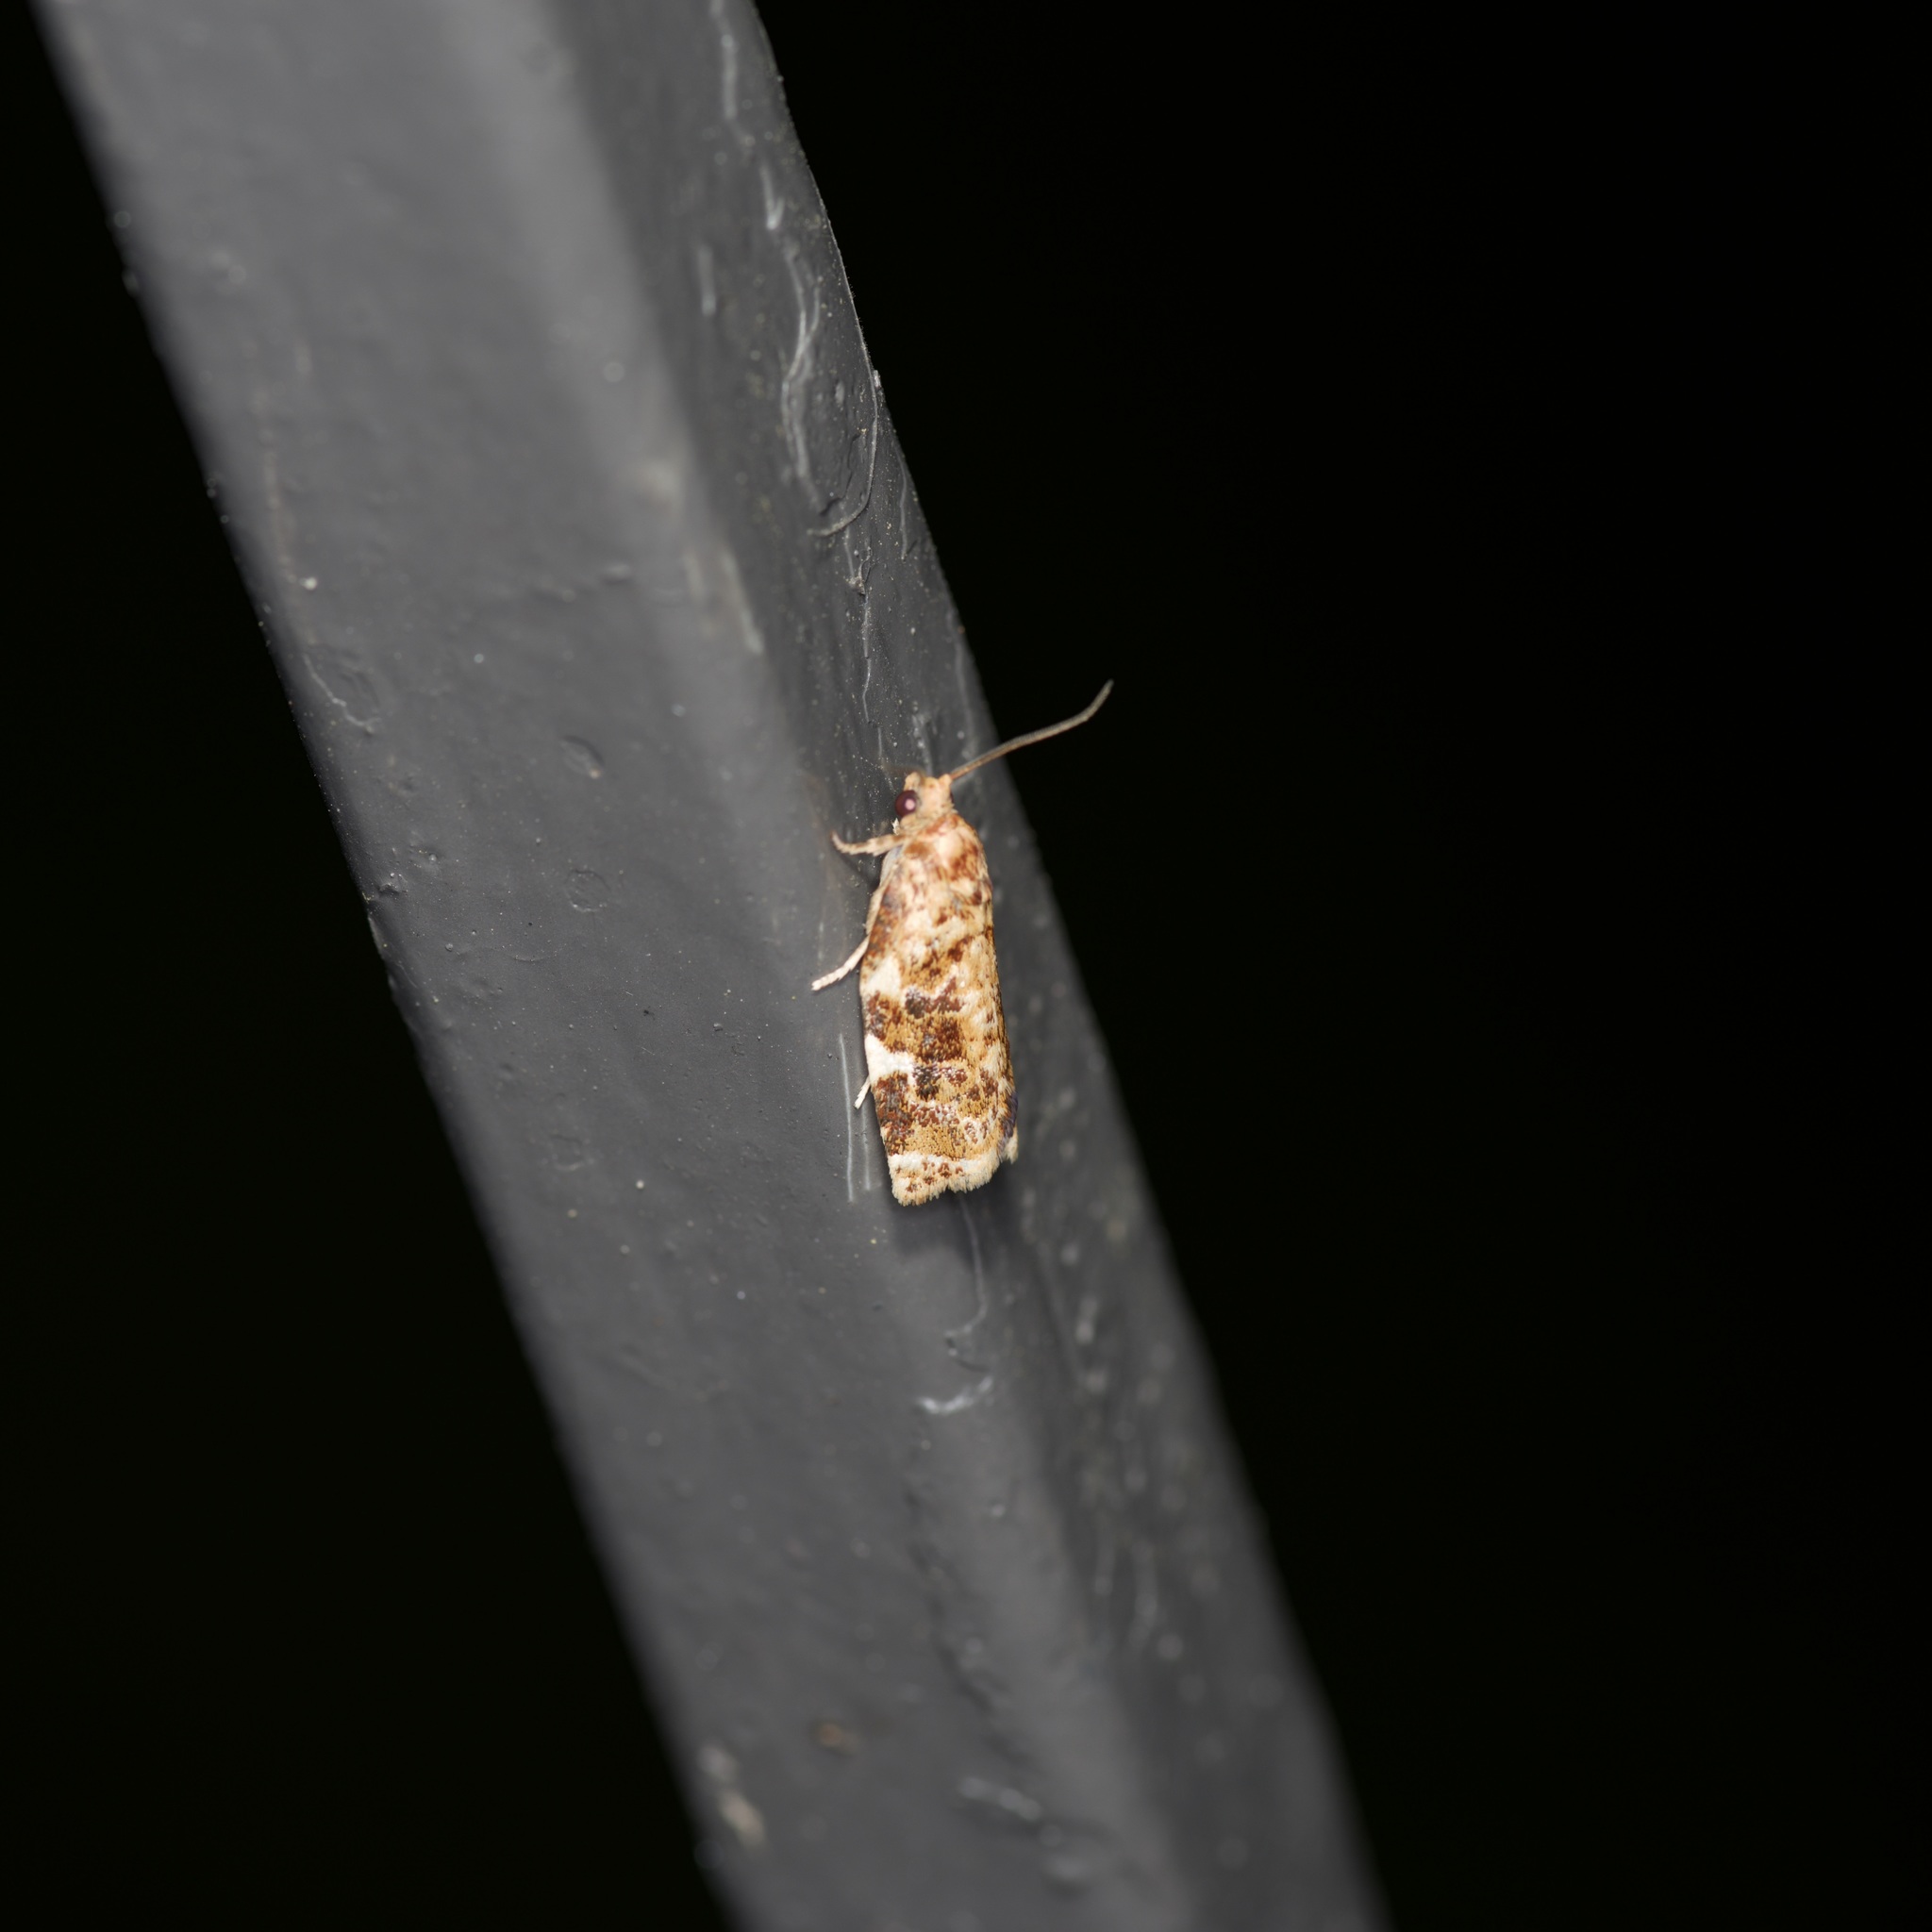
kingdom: Animalia
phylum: Arthropoda
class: Insecta
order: Lepidoptera
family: Tortricidae
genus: Archips
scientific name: Archips argyrospila
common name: Fruit-tree leafroller moth
